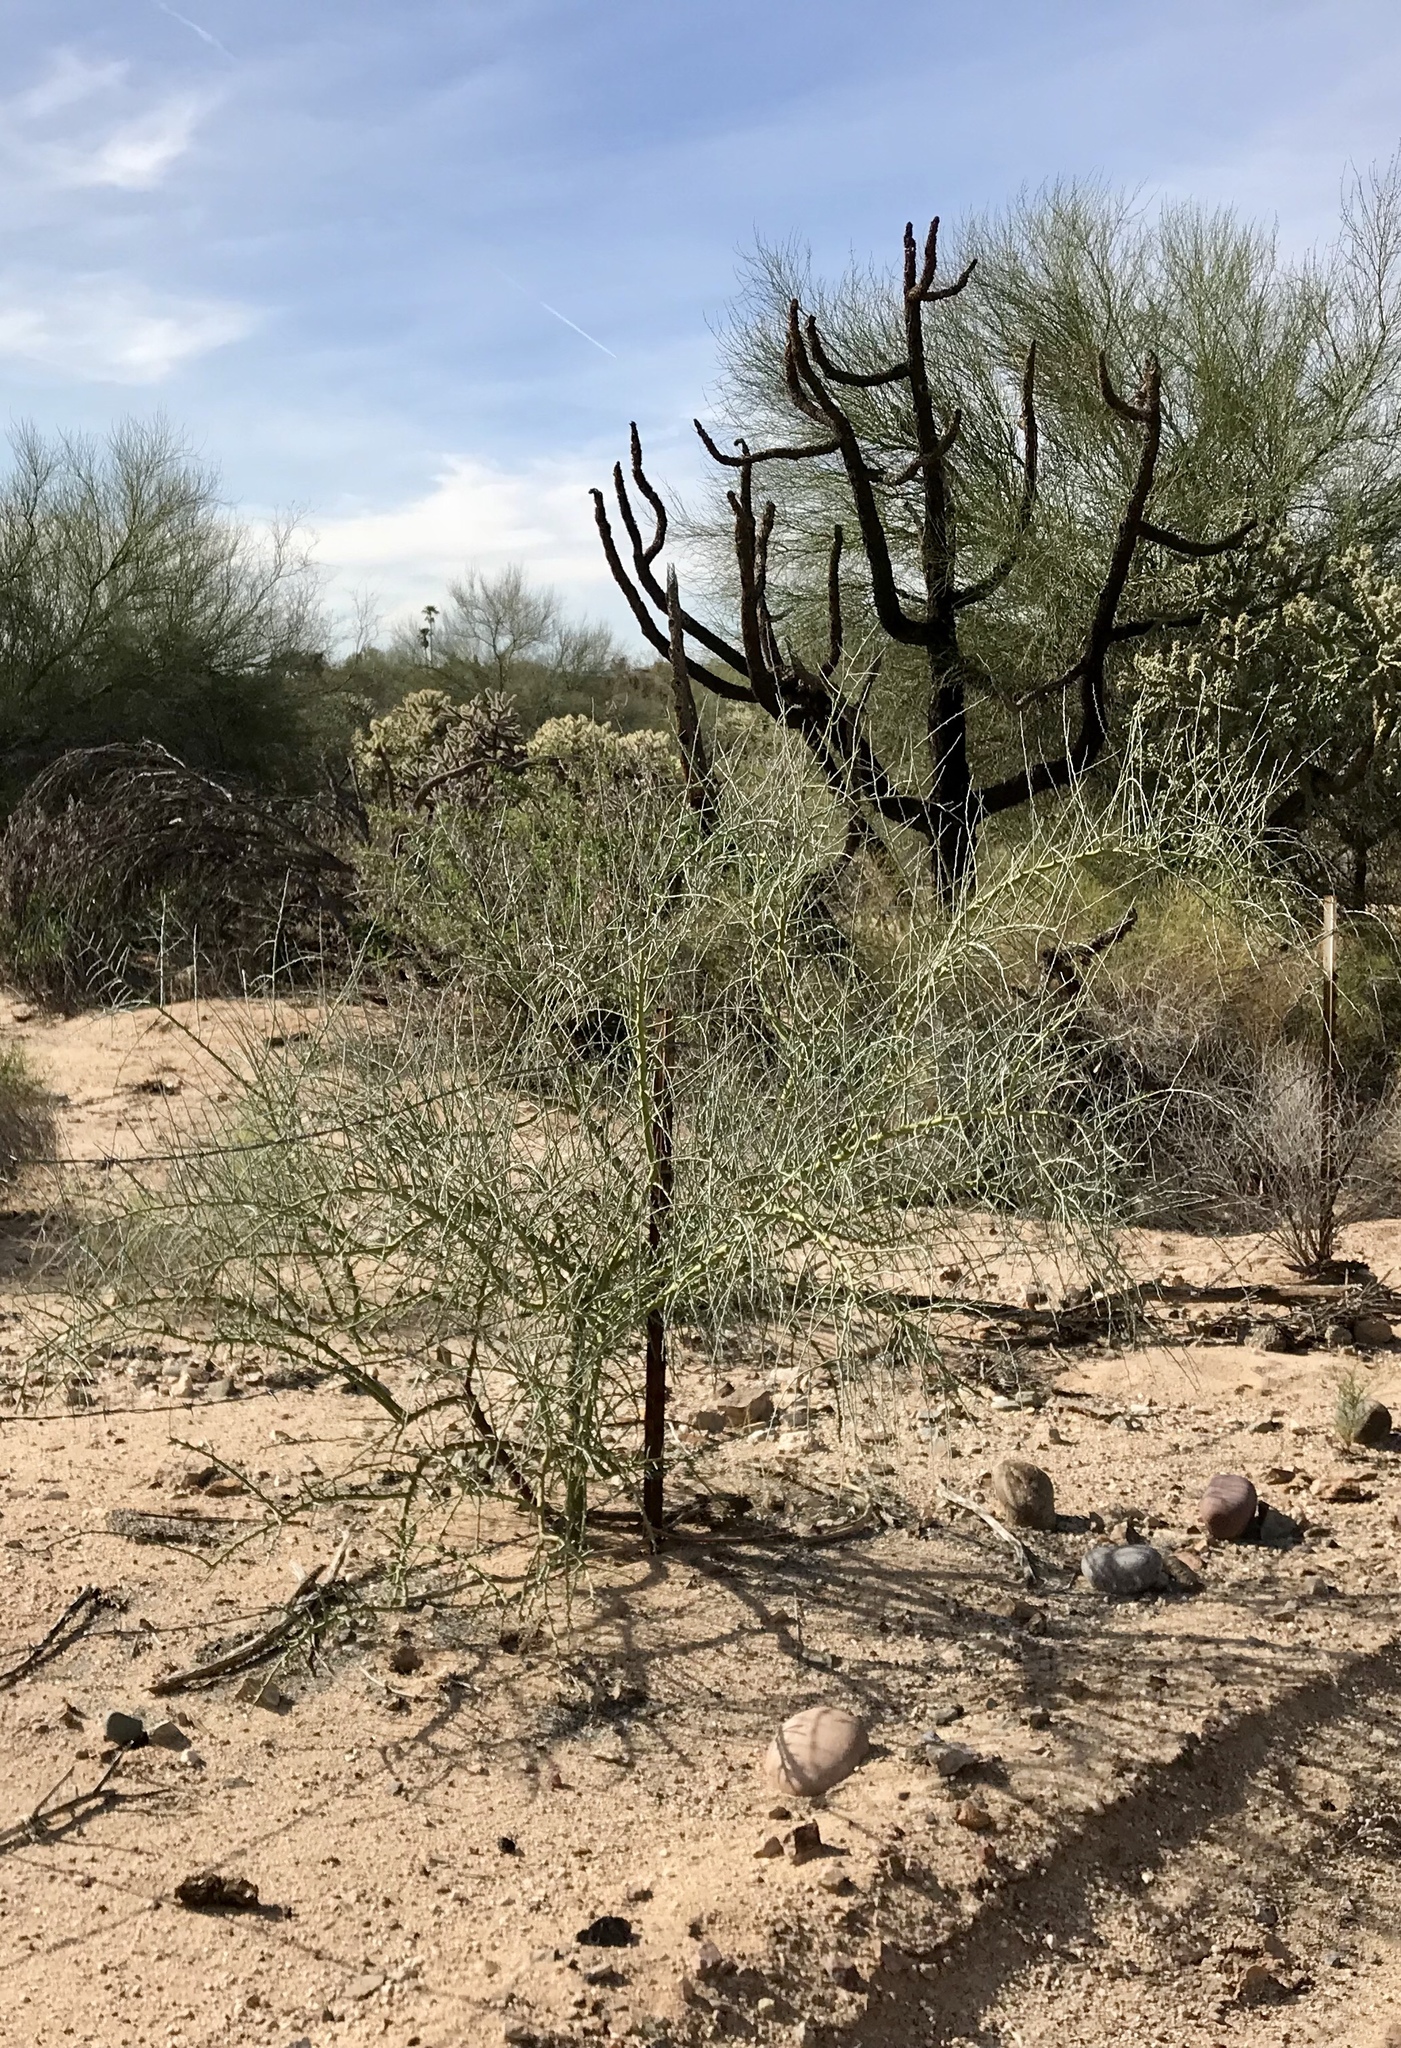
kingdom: Plantae
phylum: Tracheophyta
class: Magnoliopsida
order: Fabales
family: Fabaceae
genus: Parkinsonia
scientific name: Parkinsonia florida
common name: Blue paloverde
